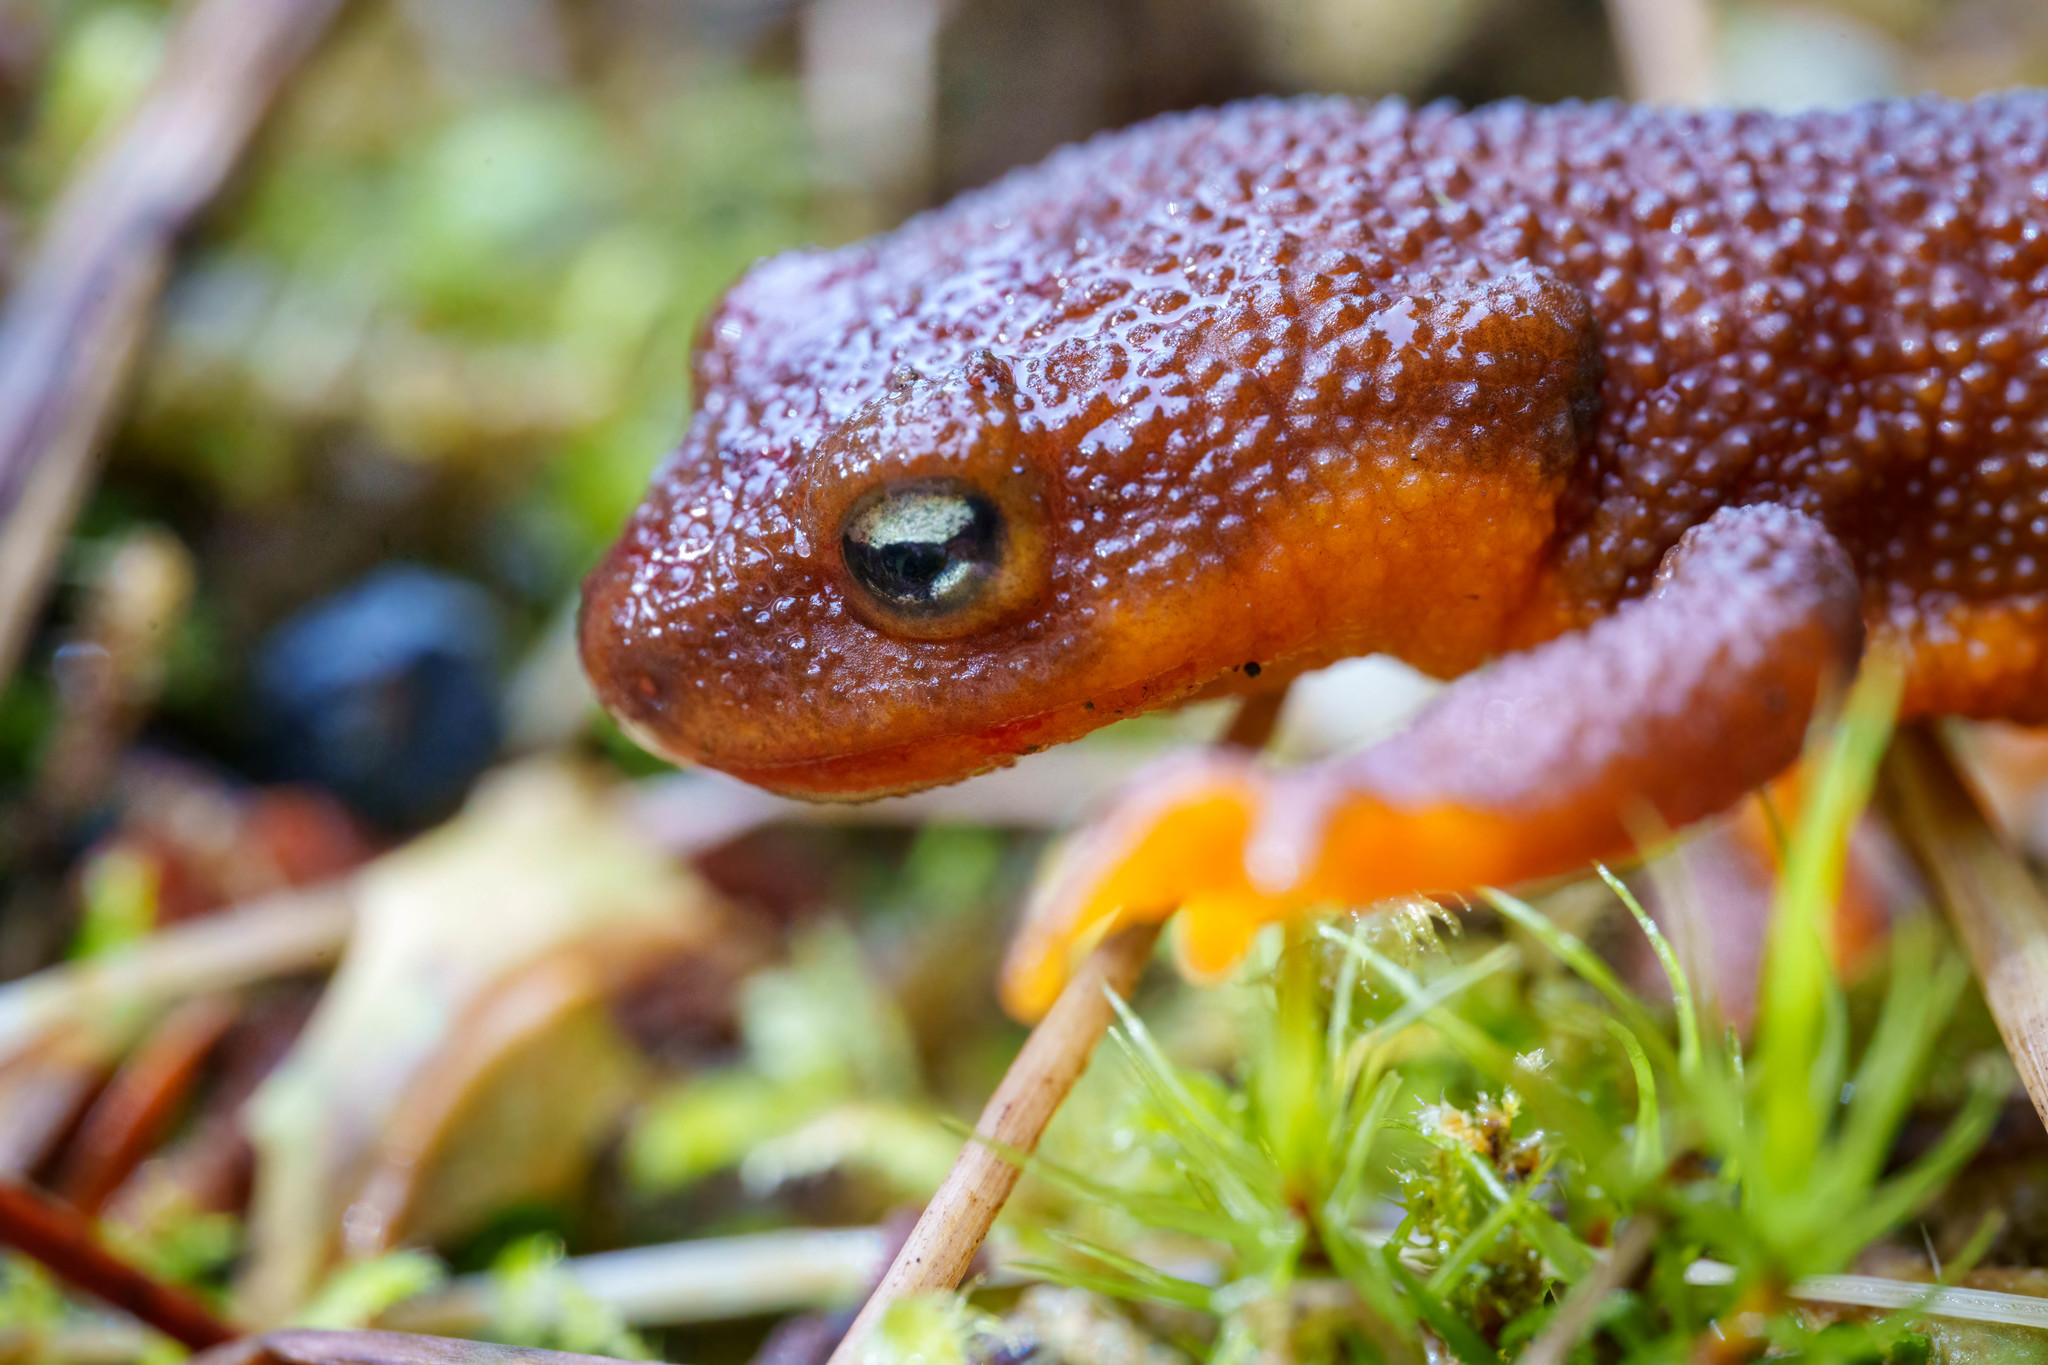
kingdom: Animalia
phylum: Chordata
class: Amphibia
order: Caudata
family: Salamandridae
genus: Taricha
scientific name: Taricha granulosa
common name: Roughskin newt
